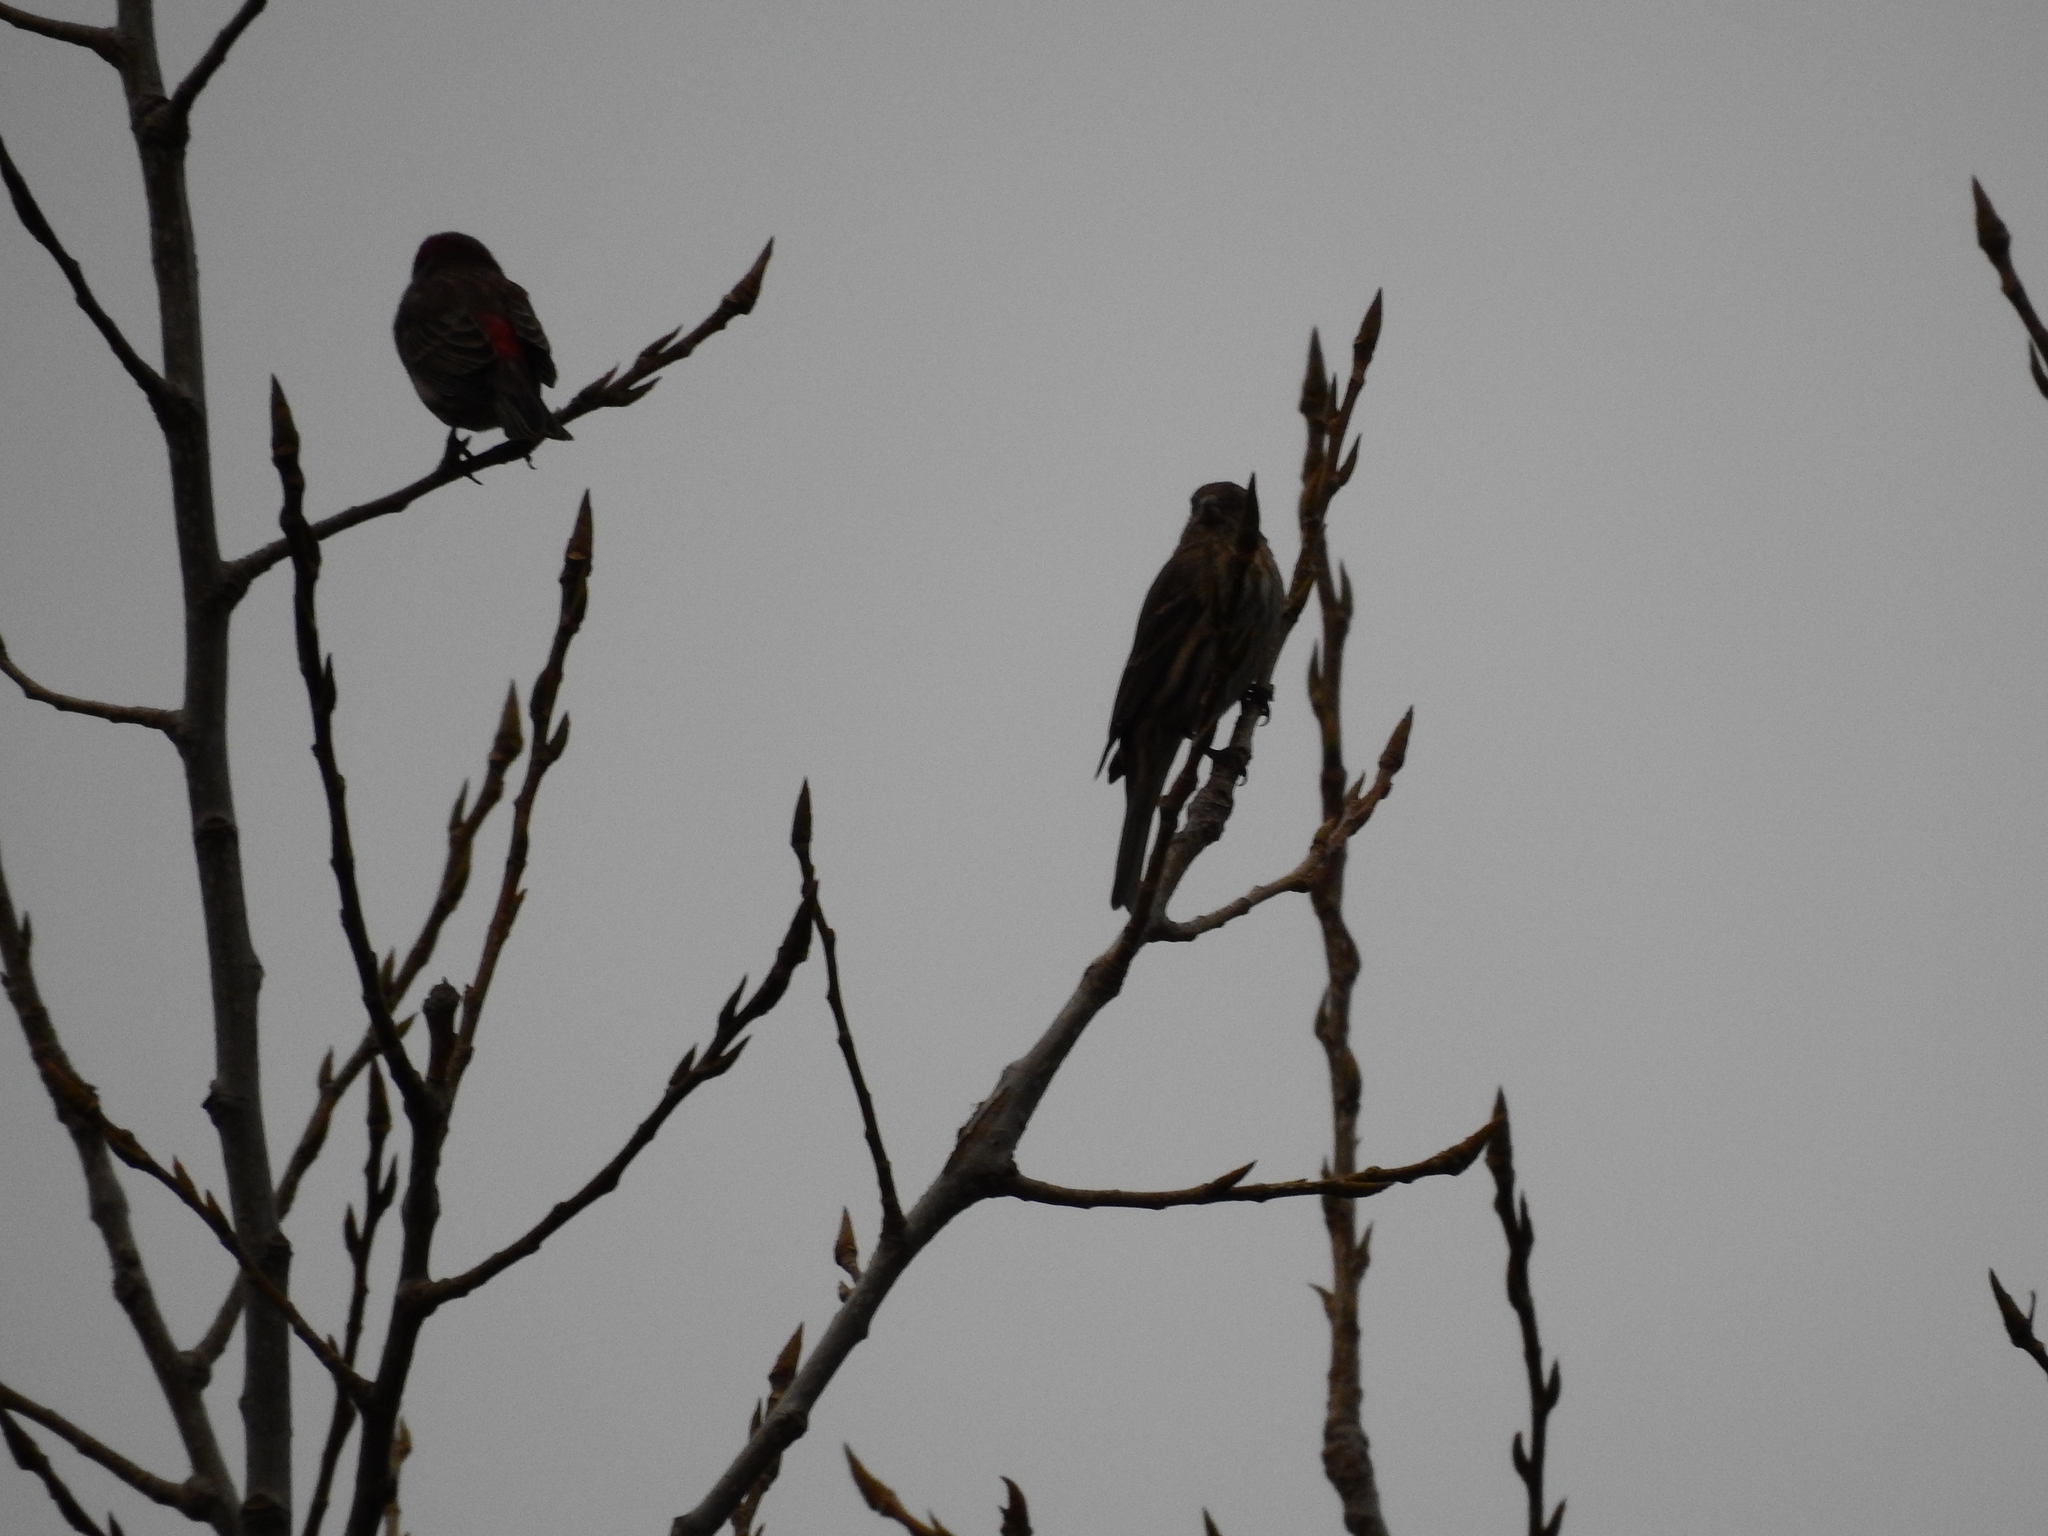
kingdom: Animalia
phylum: Chordata
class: Aves
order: Passeriformes
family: Fringillidae
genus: Haemorhous
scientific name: Haemorhous mexicanus
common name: House finch
